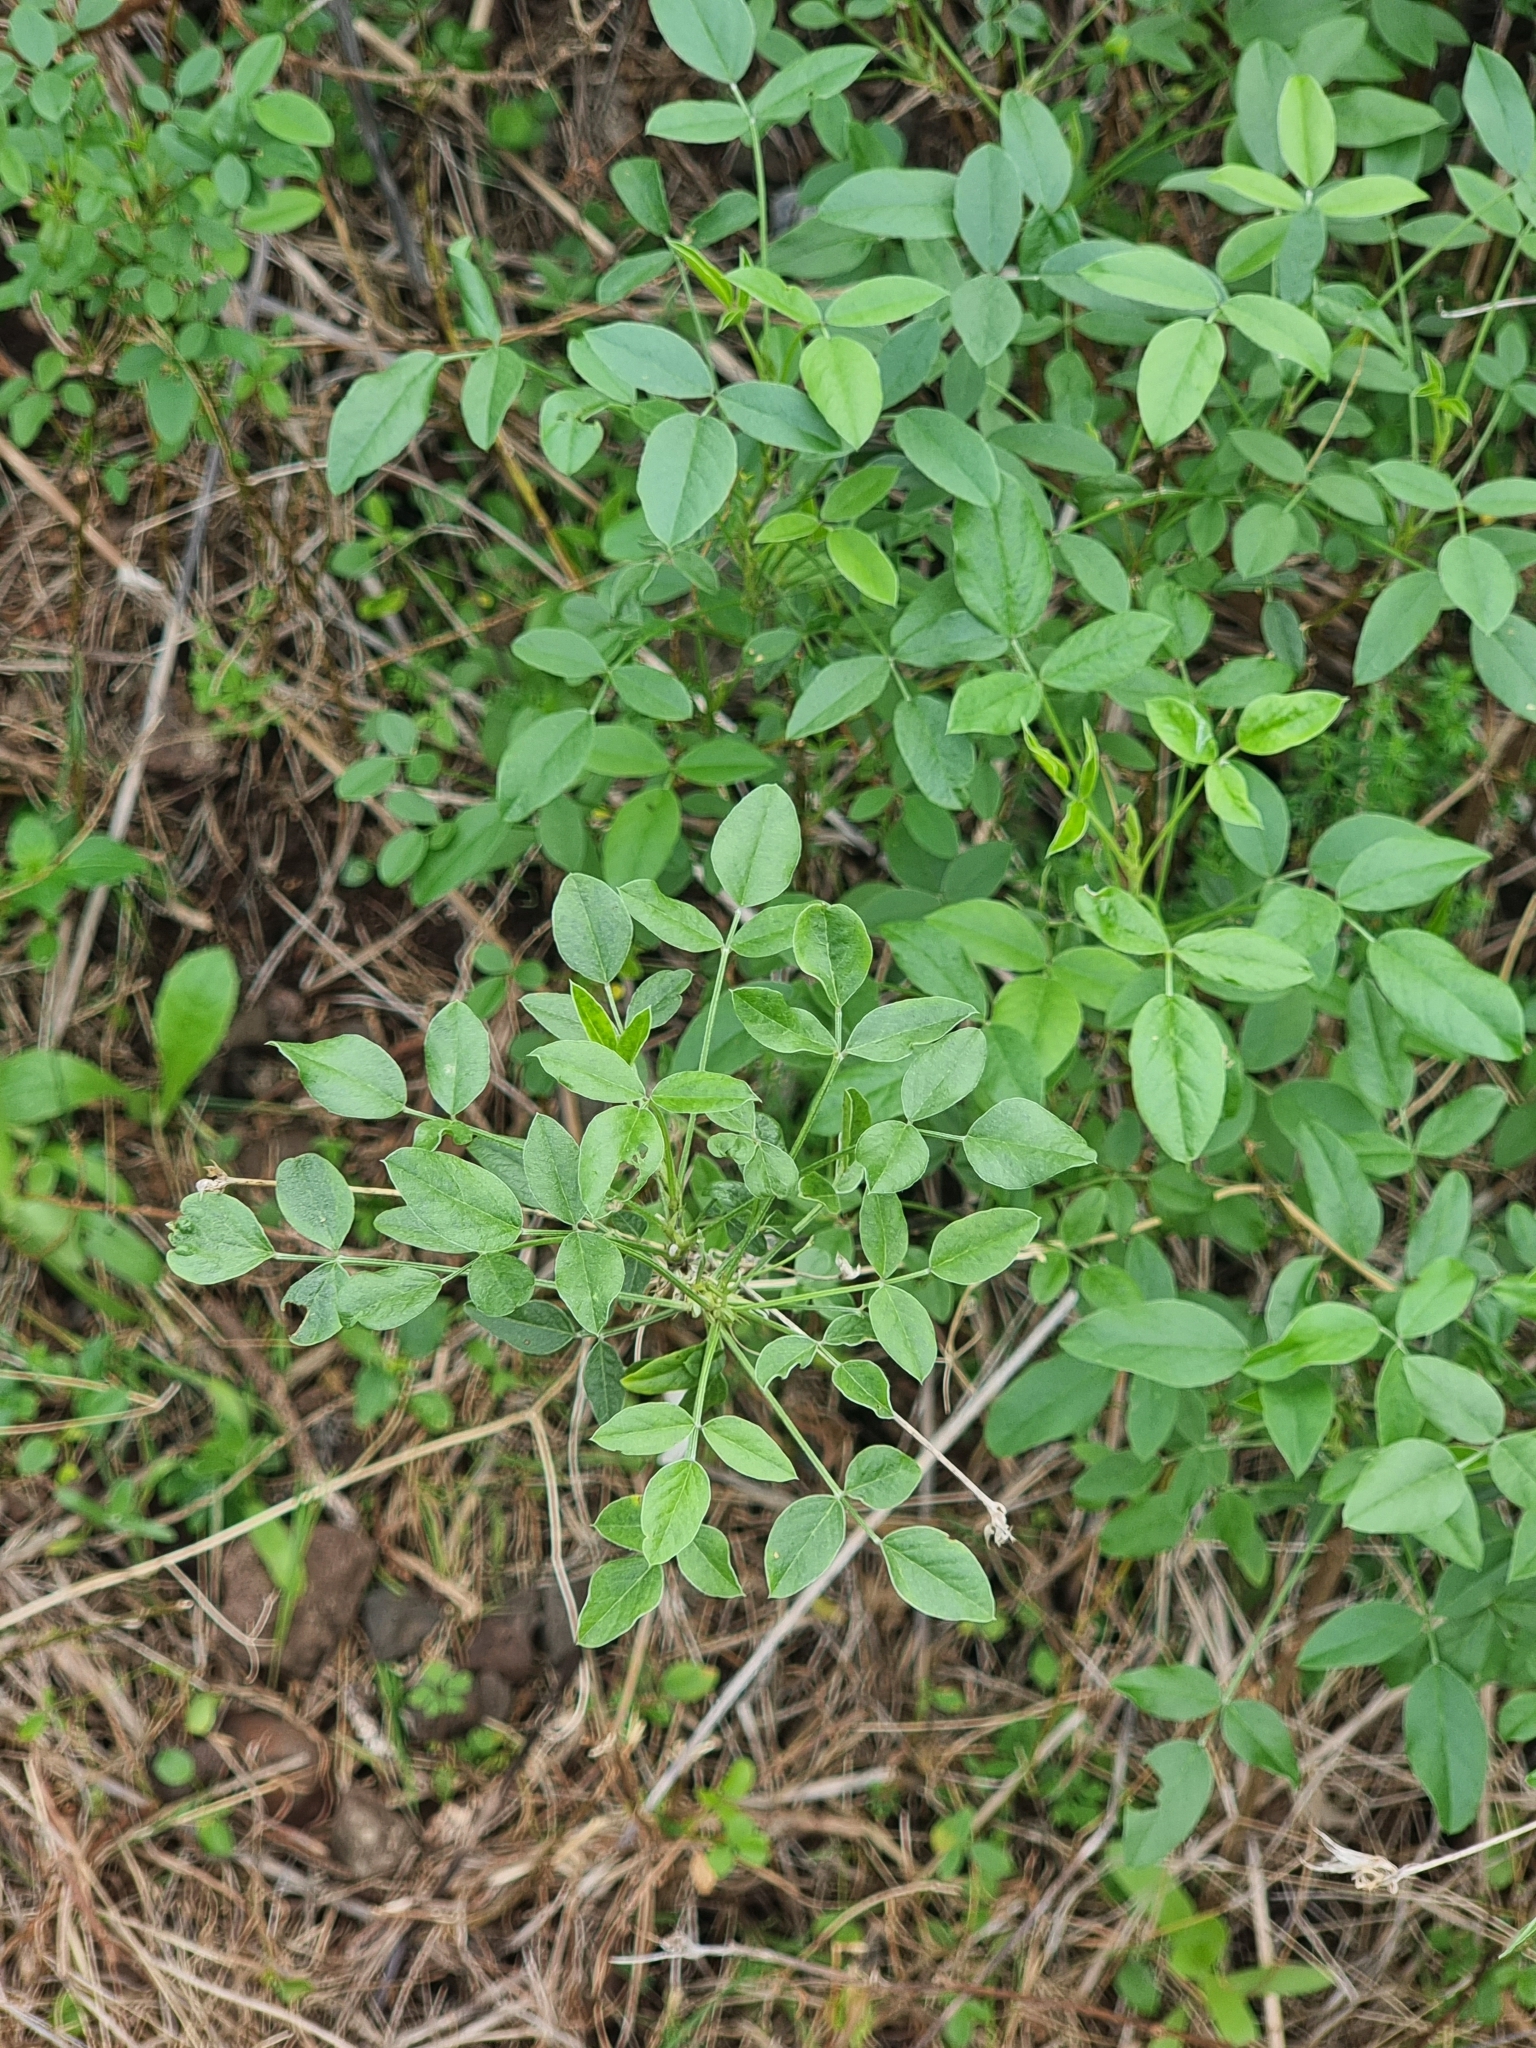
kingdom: Plantae
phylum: Tracheophyta
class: Magnoliopsida
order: Fabales
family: Fabaceae
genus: Bituminaria
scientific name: Bituminaria bituminosa
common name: Arabian pea
